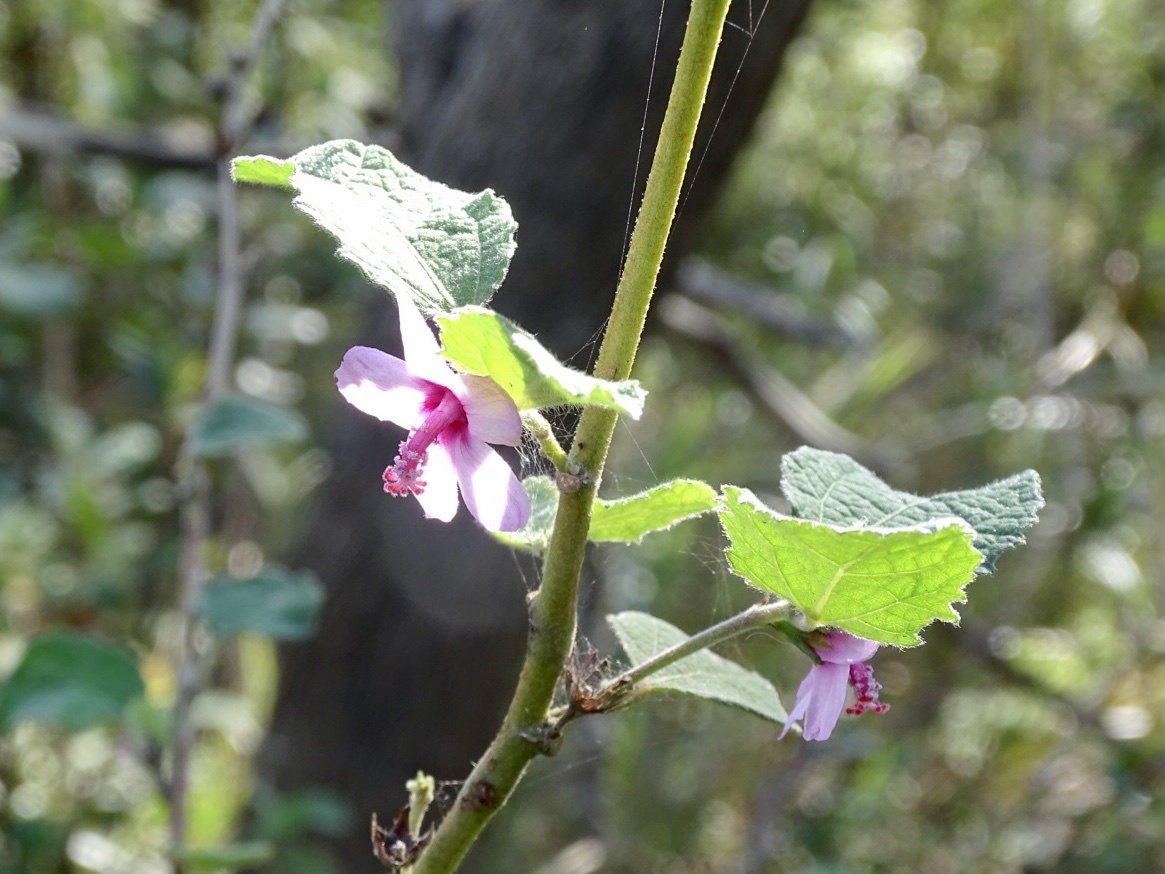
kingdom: Plantae
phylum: Tracheophyta
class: Magnoliopsida
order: Malvales
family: Malvaceae
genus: Urena
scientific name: Urena lobata
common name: Caesarweed
